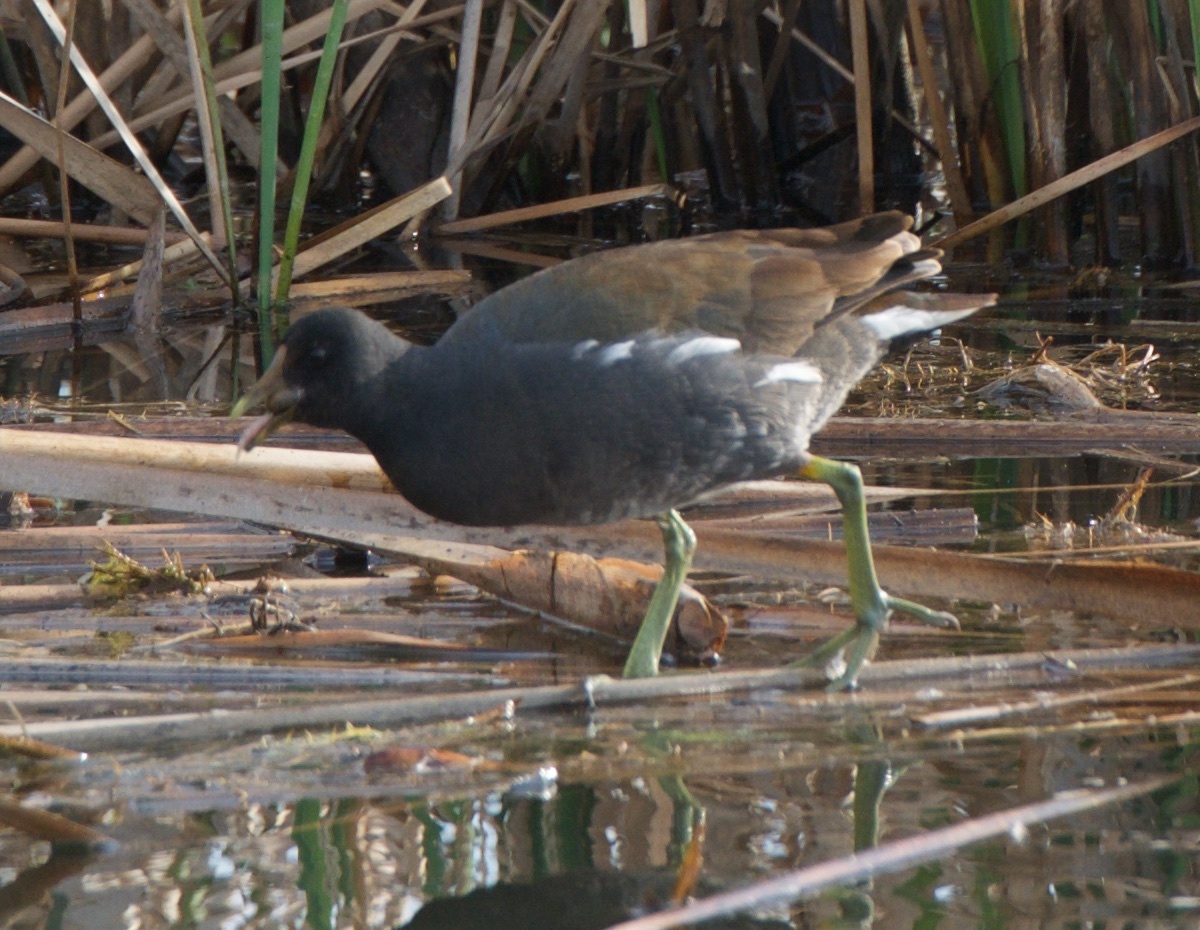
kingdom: Animalia
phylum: Chordata
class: Aves
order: Gruiformes
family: Rallidae
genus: Gallinula
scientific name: Gallinula chloropus
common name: Common moorhen
